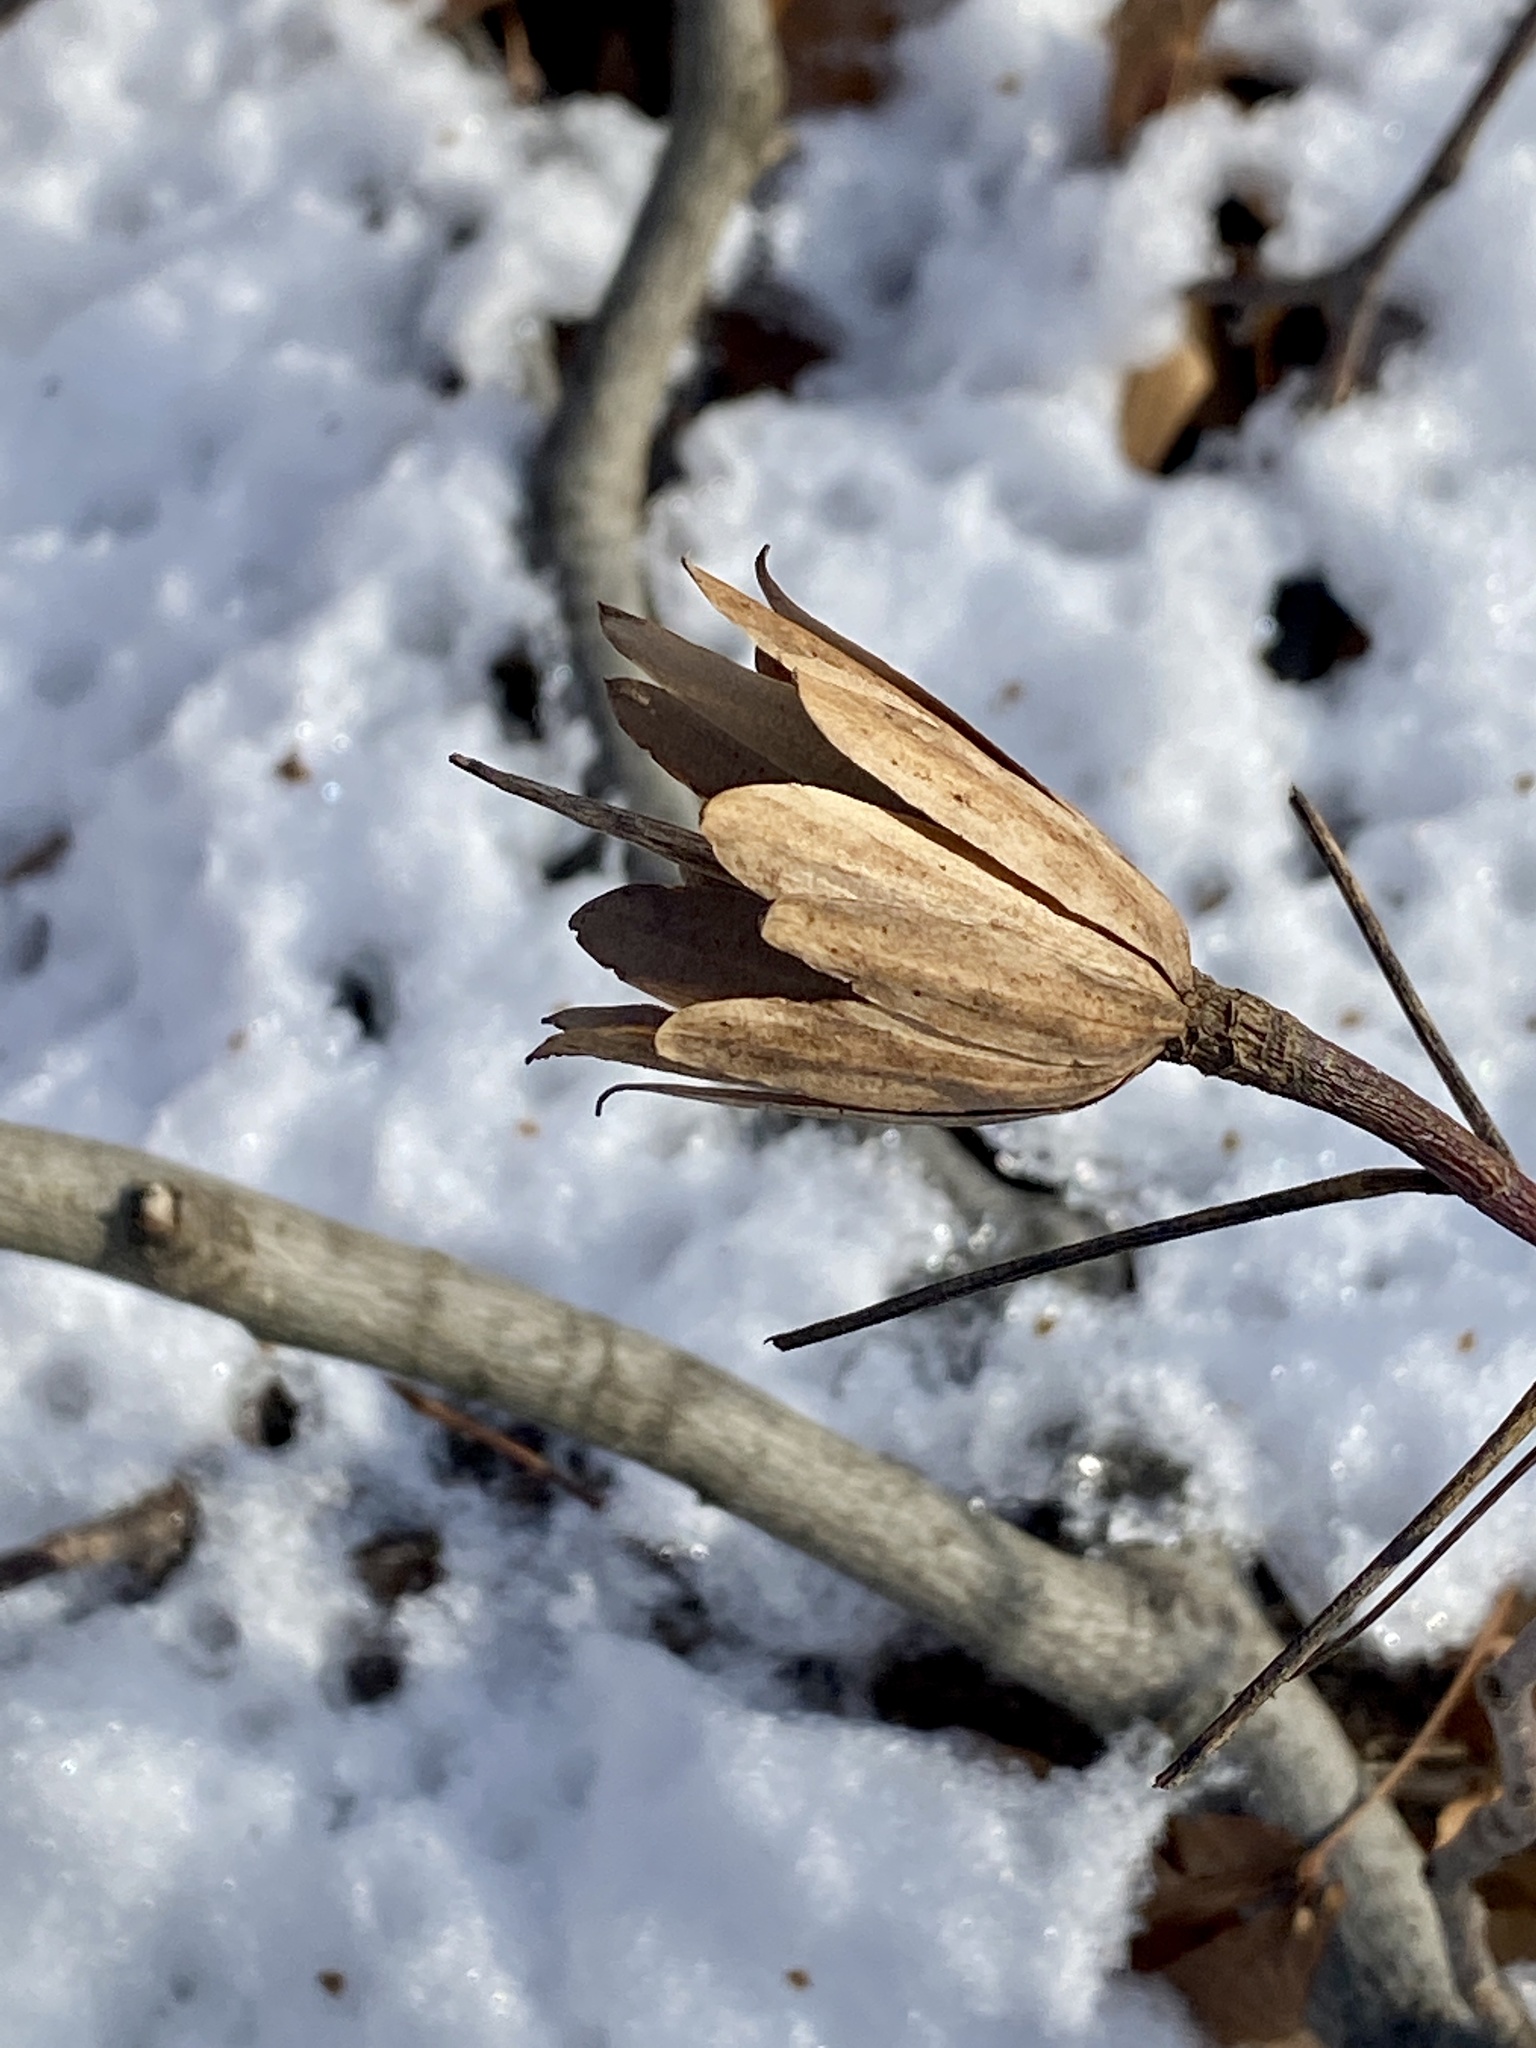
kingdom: Plantae
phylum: Tracheophyta
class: Magnoliopsida
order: Magnoliales
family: Magnoliaceae
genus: Liriodendron
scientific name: Liriodendron tulipifera
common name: Tulip tree
